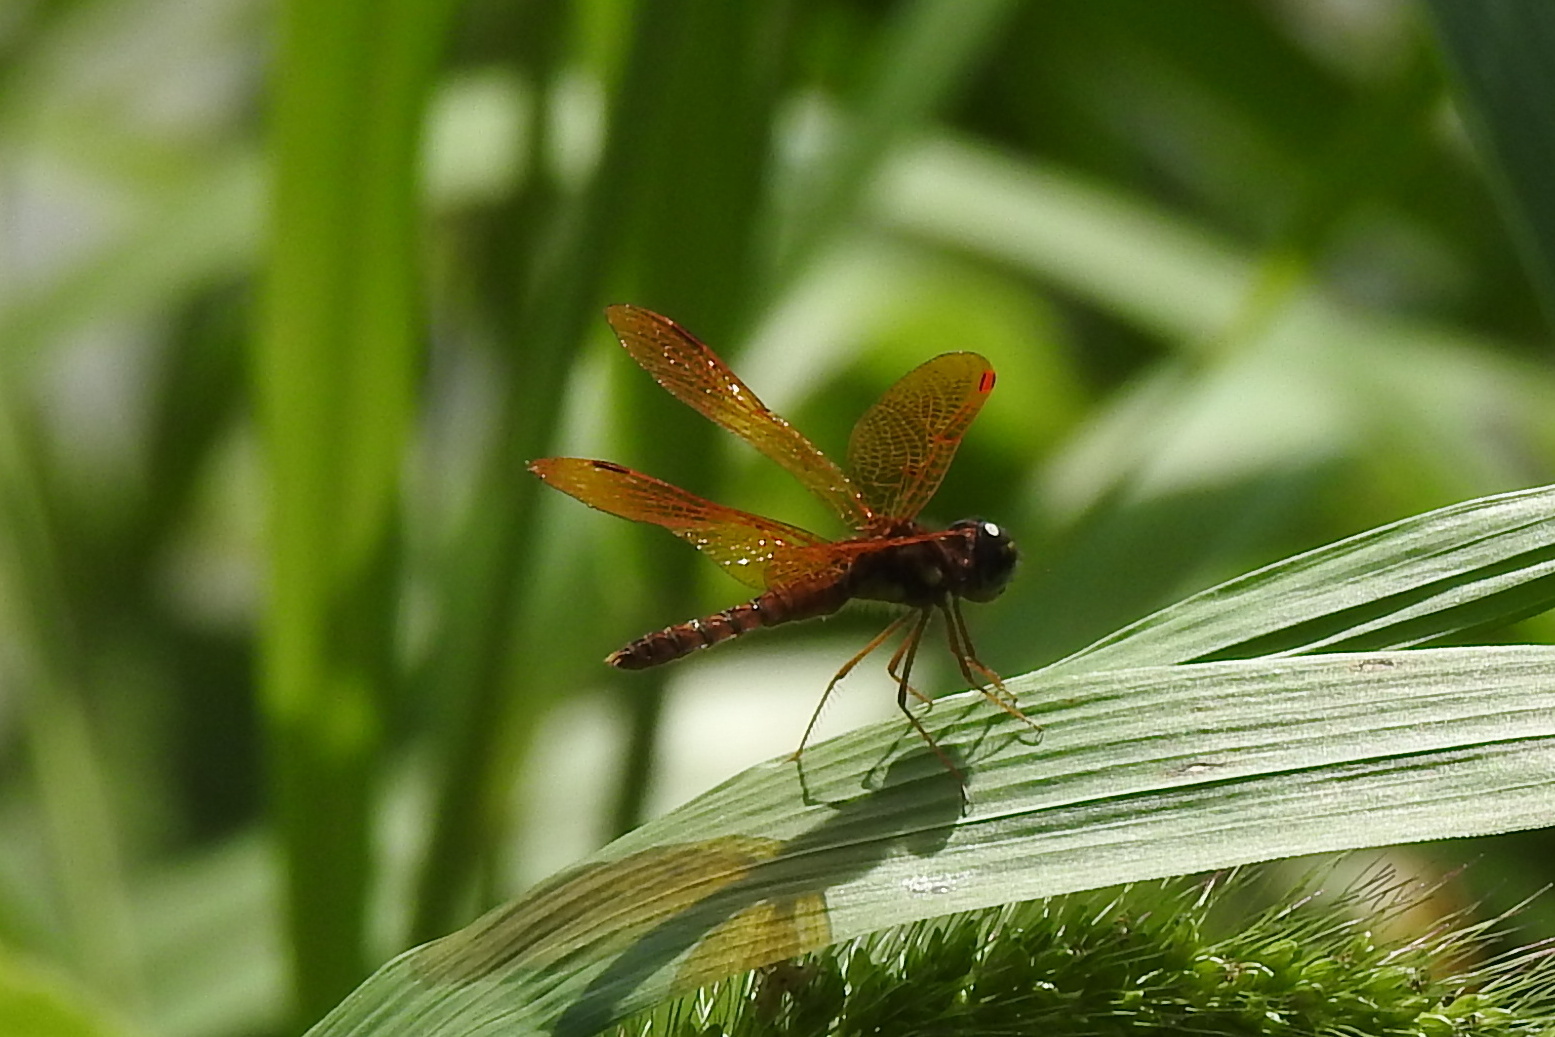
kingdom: Animalia
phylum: Arthropoda
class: Insecta
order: Odonata
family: Libellulidae
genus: Perithemis
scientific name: Perithemis tenera
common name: Eastern amberwing
